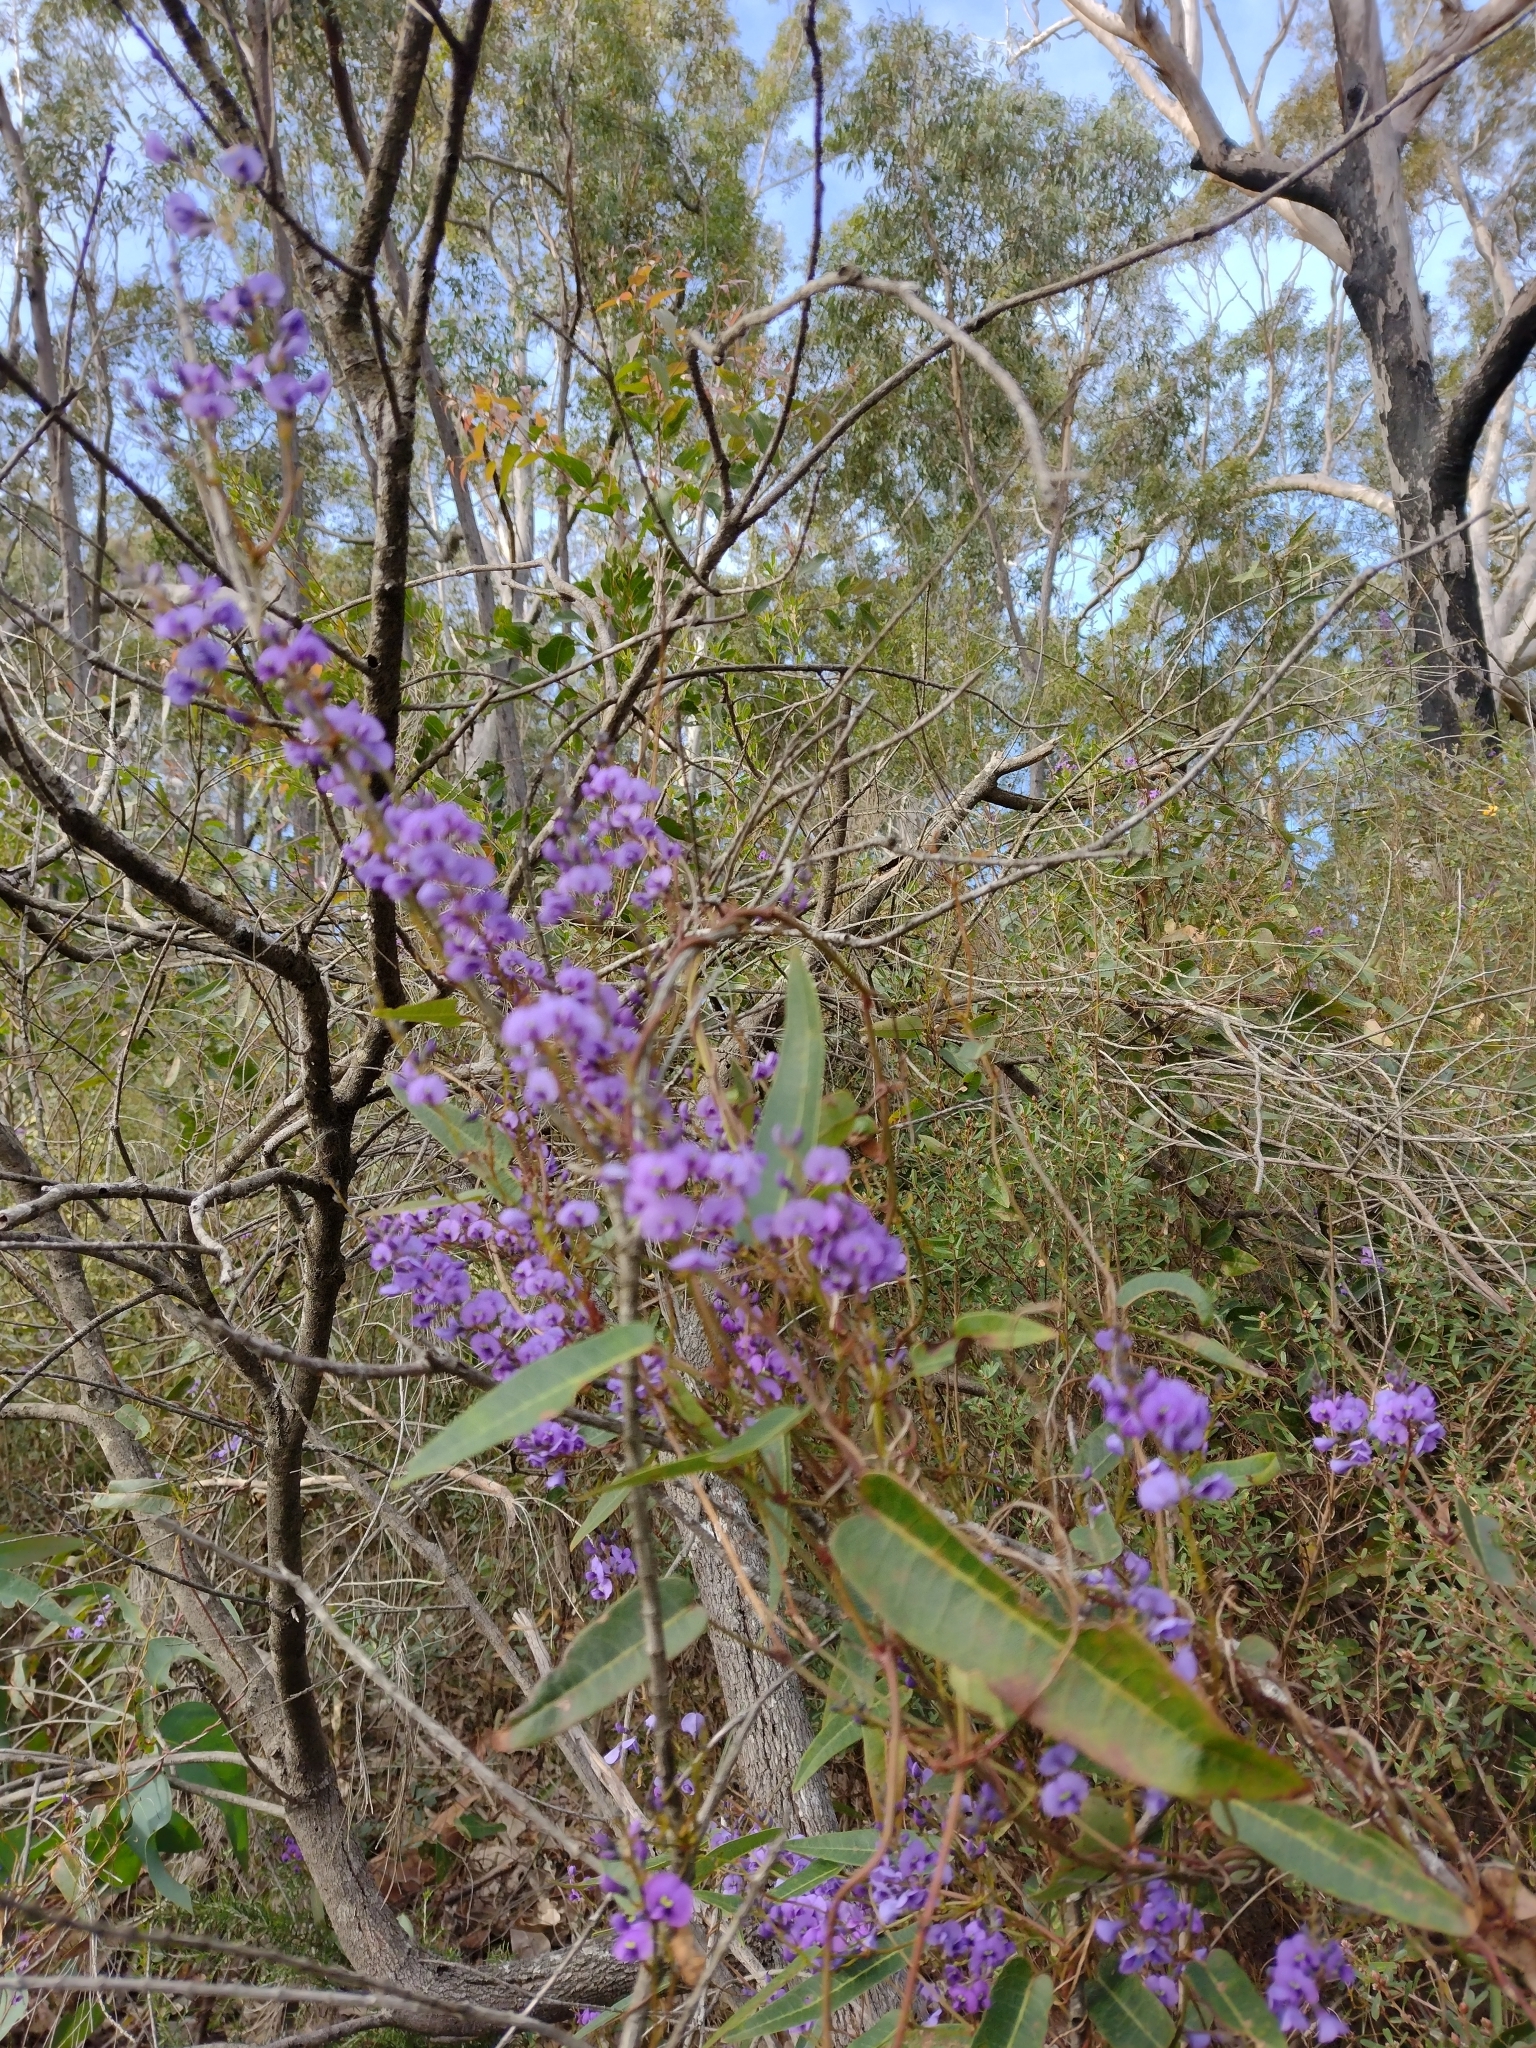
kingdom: Plantae
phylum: Tracheophyta
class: Magnoliopsida
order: Fabales
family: Fabaceae
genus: Hardenbergia
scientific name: Hardenbergia violacea
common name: Coral-pea
